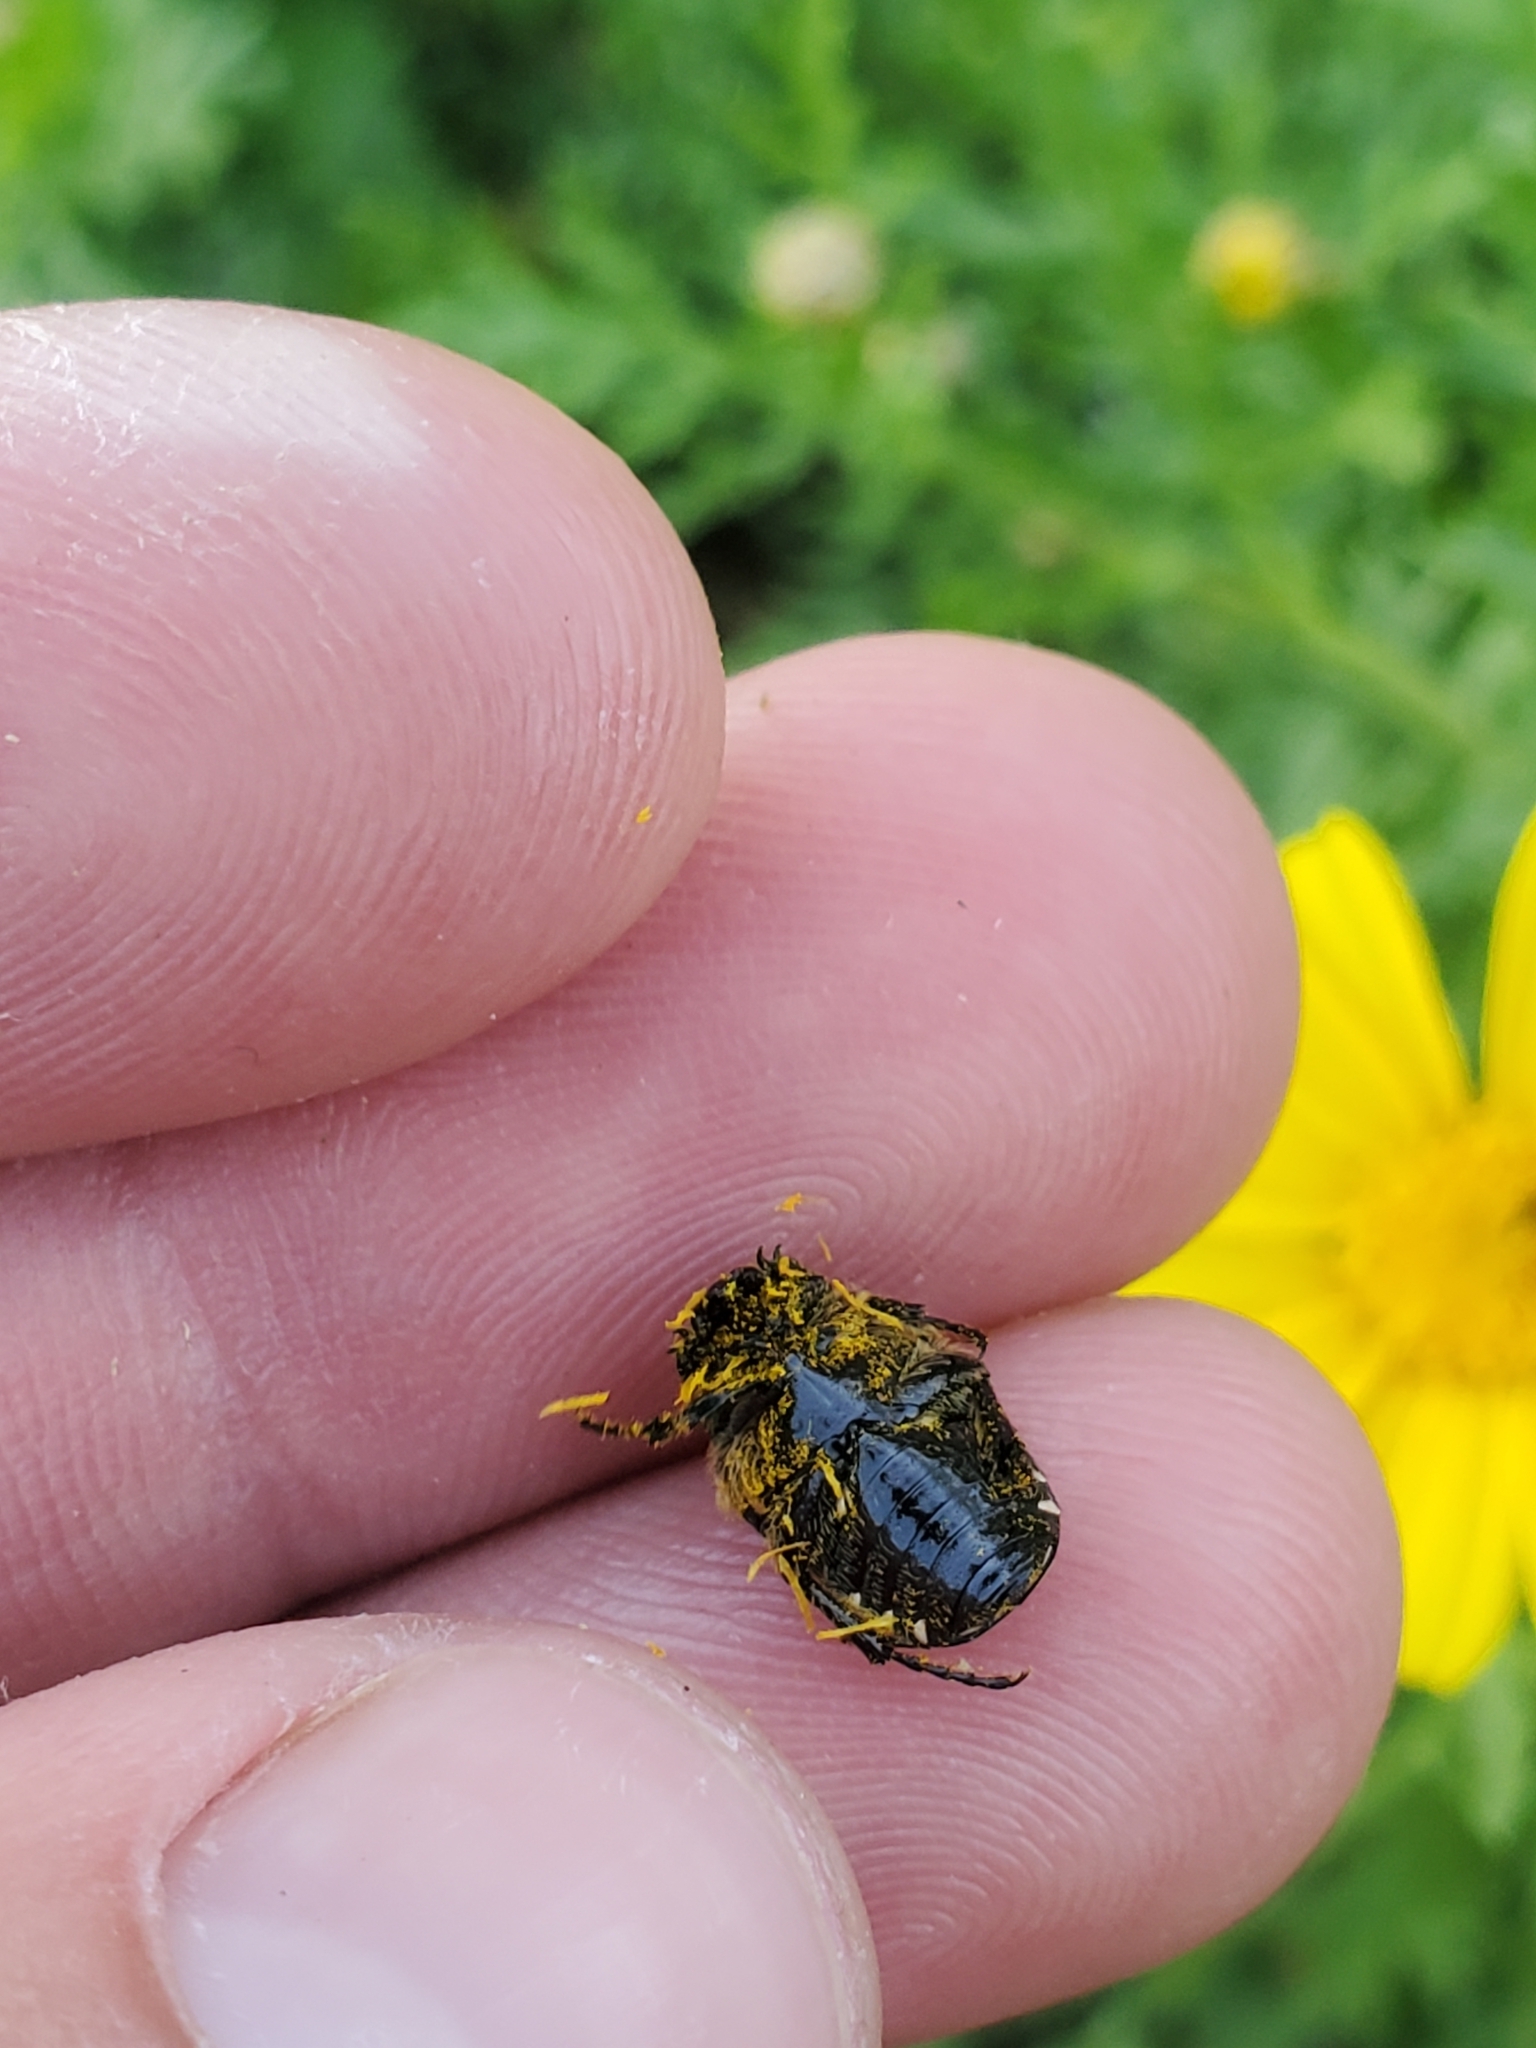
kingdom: Animalia
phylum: Arthropoda
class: Insecta
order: Coleoptera
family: Scarabaeidae
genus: Oxythyrea
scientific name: Oxythyrea noemi
